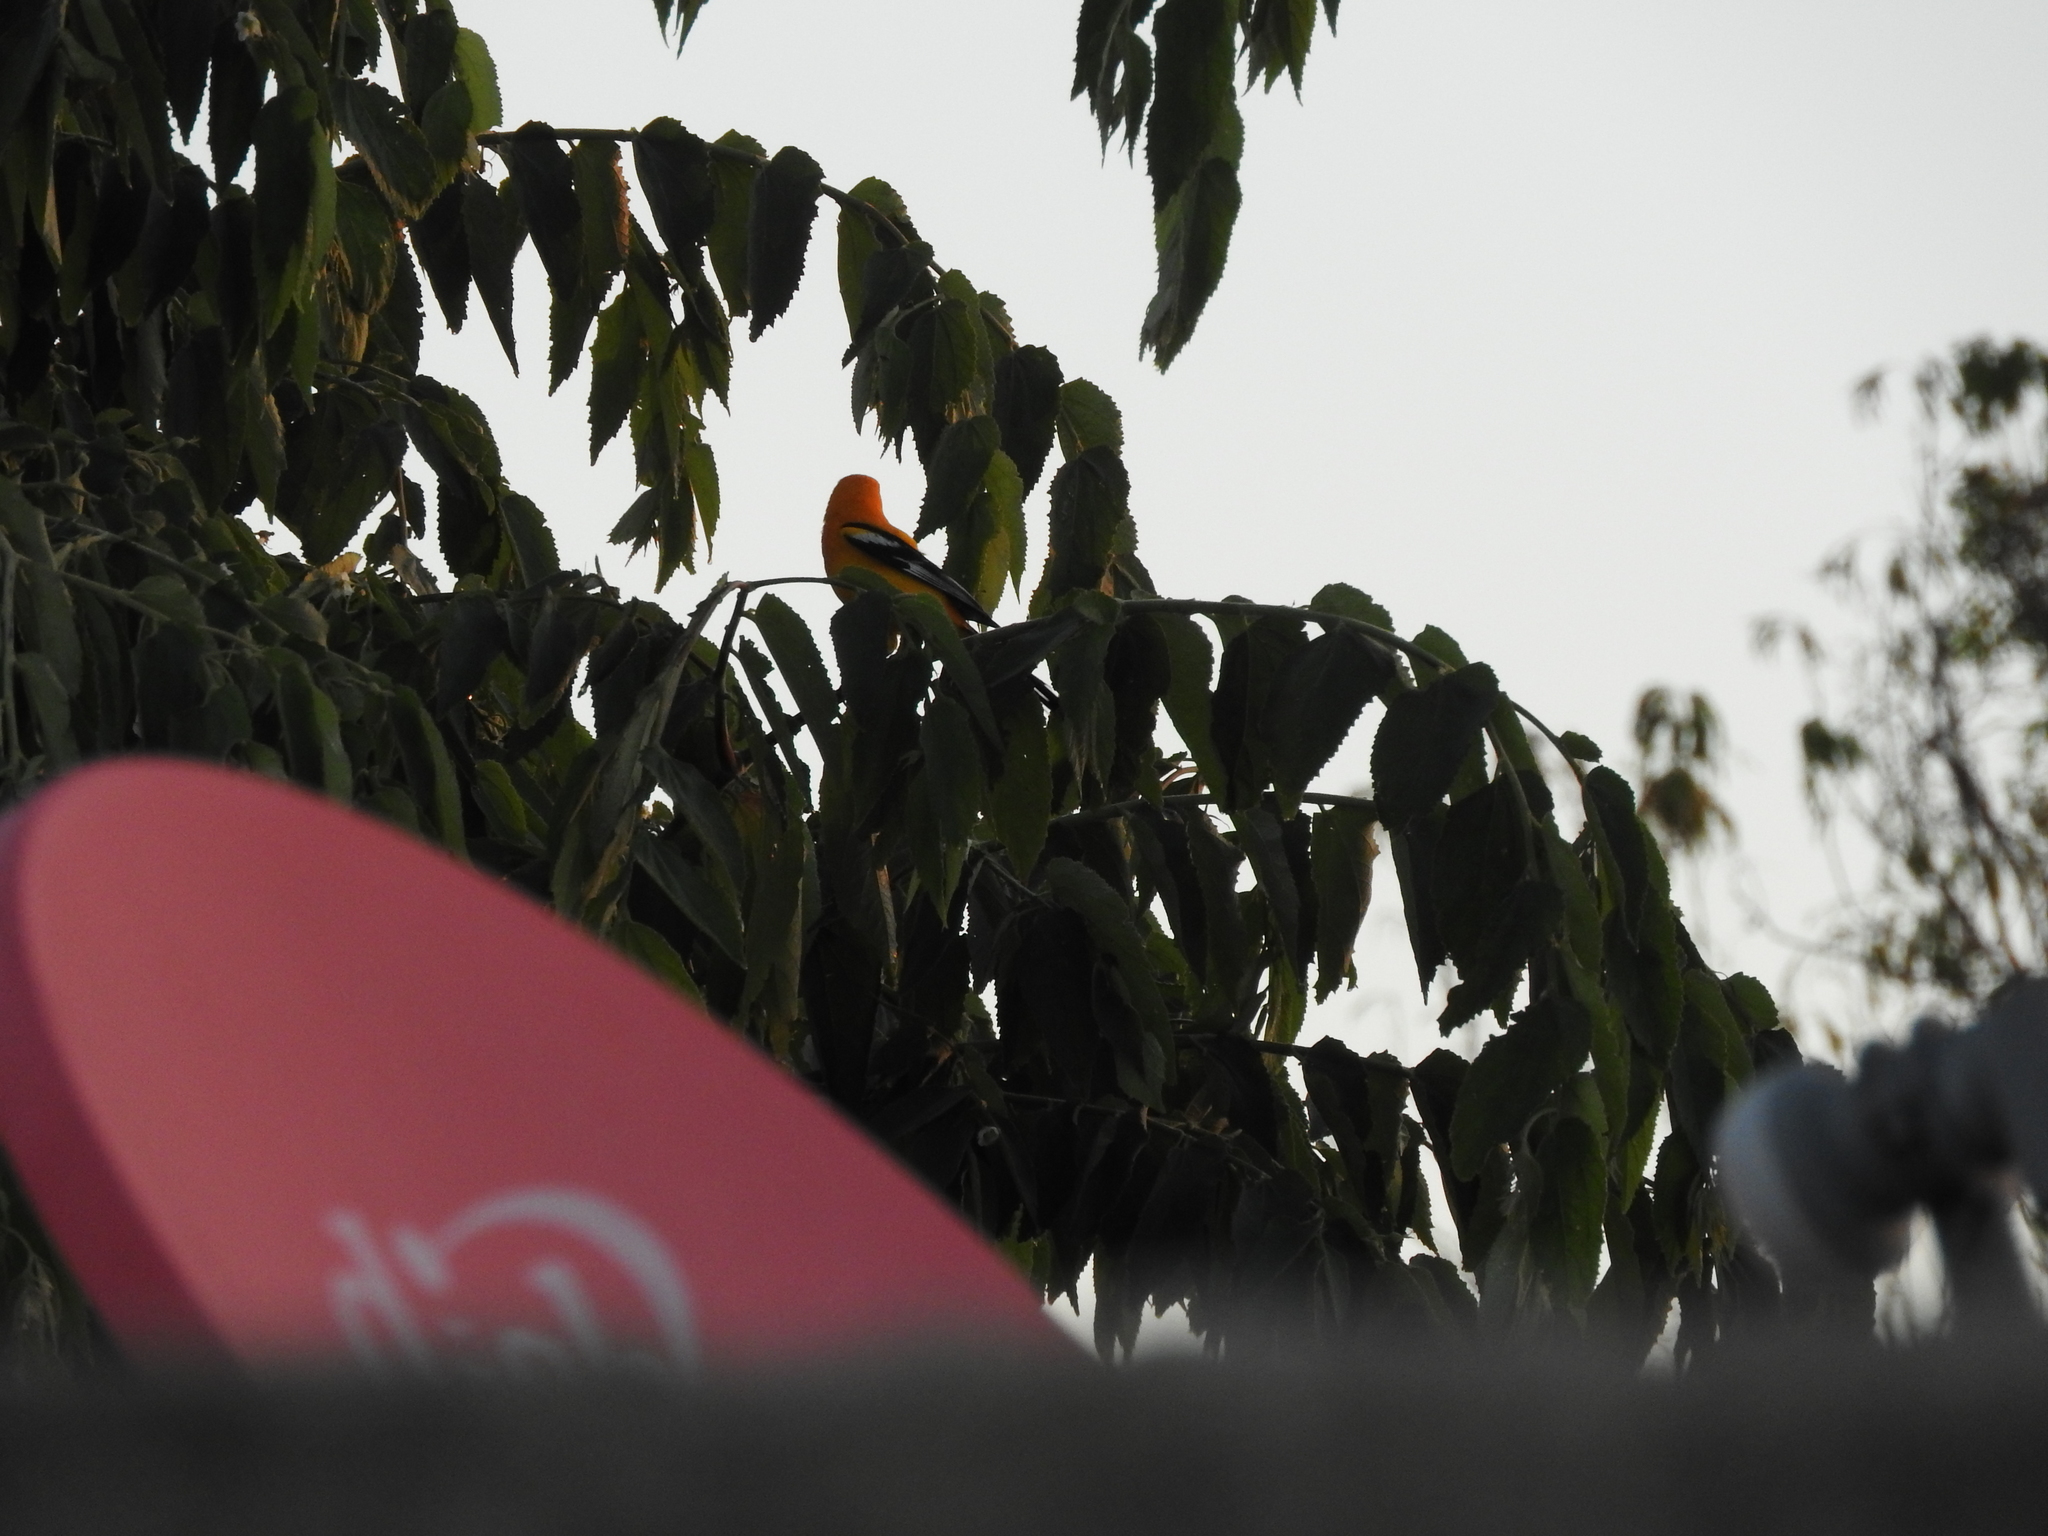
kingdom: Animalia
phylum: Chordata
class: Aves
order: Passeriformes
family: Icteridae
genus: Icterus
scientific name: Icterus auratus
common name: Orange oriole
